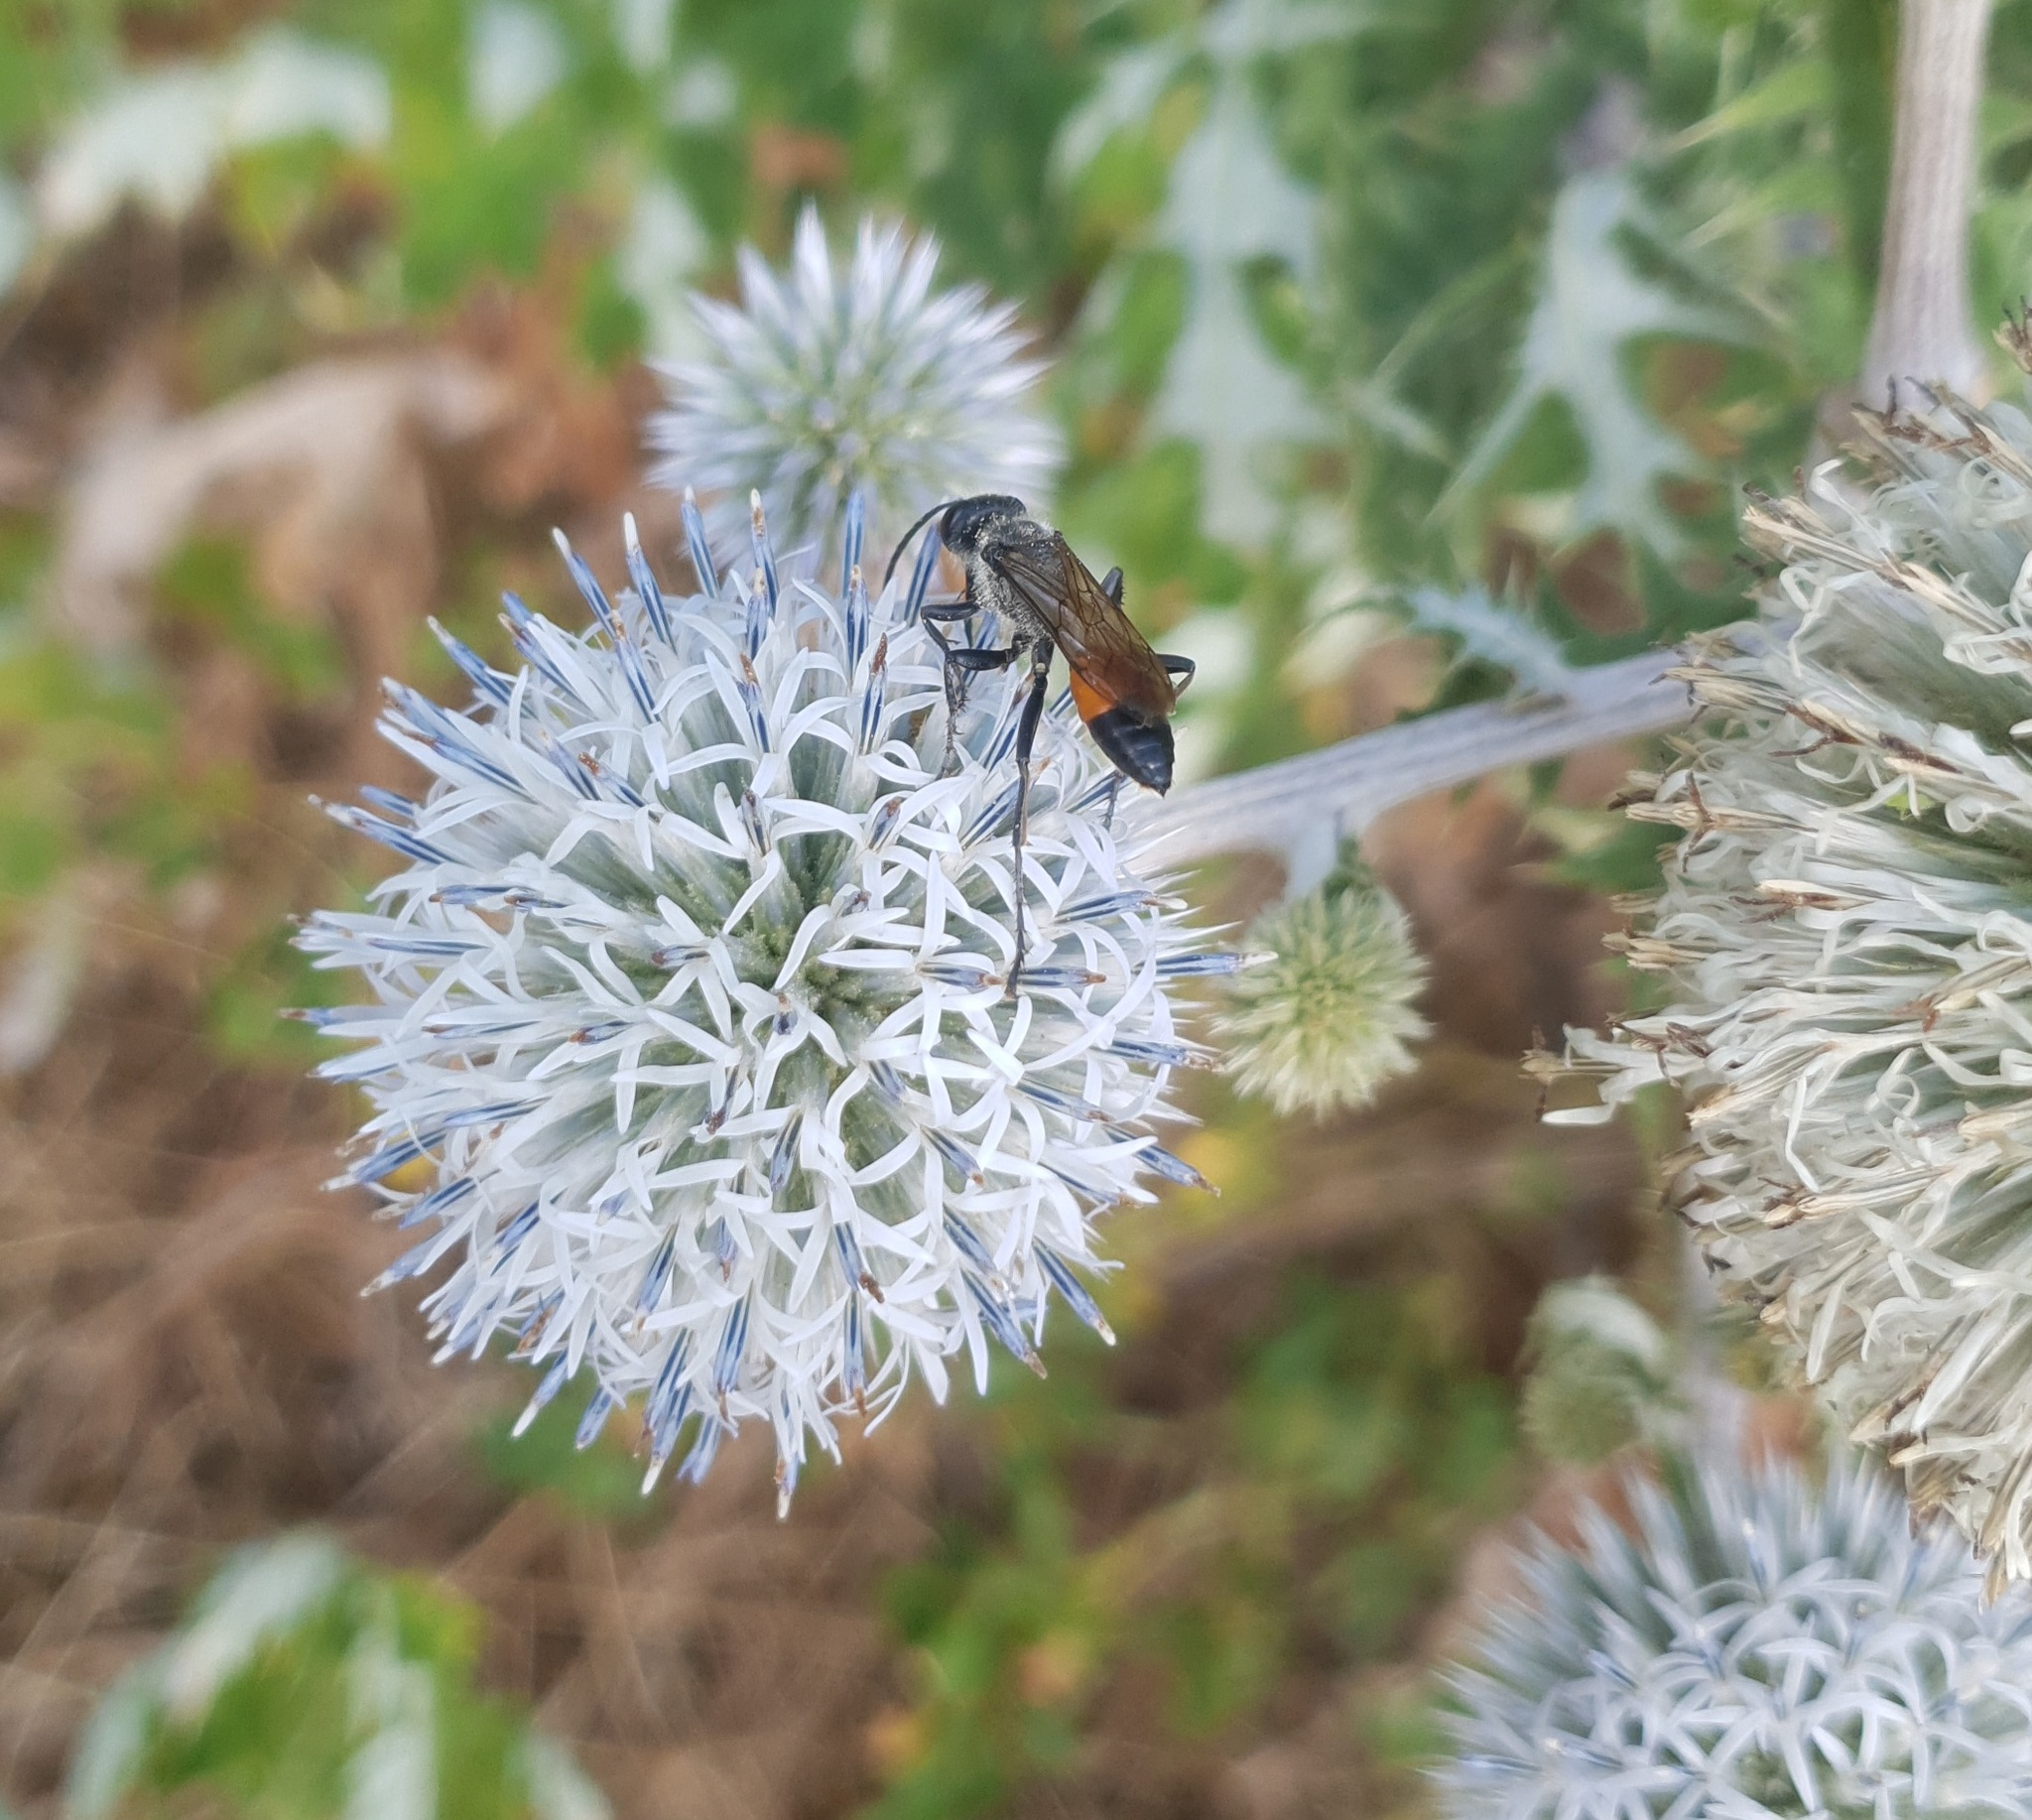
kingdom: Animalia
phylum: Arthropoda
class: Insecta
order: Hymenoptera
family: Sphecidae
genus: Sphex
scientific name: Sphex funerarius
